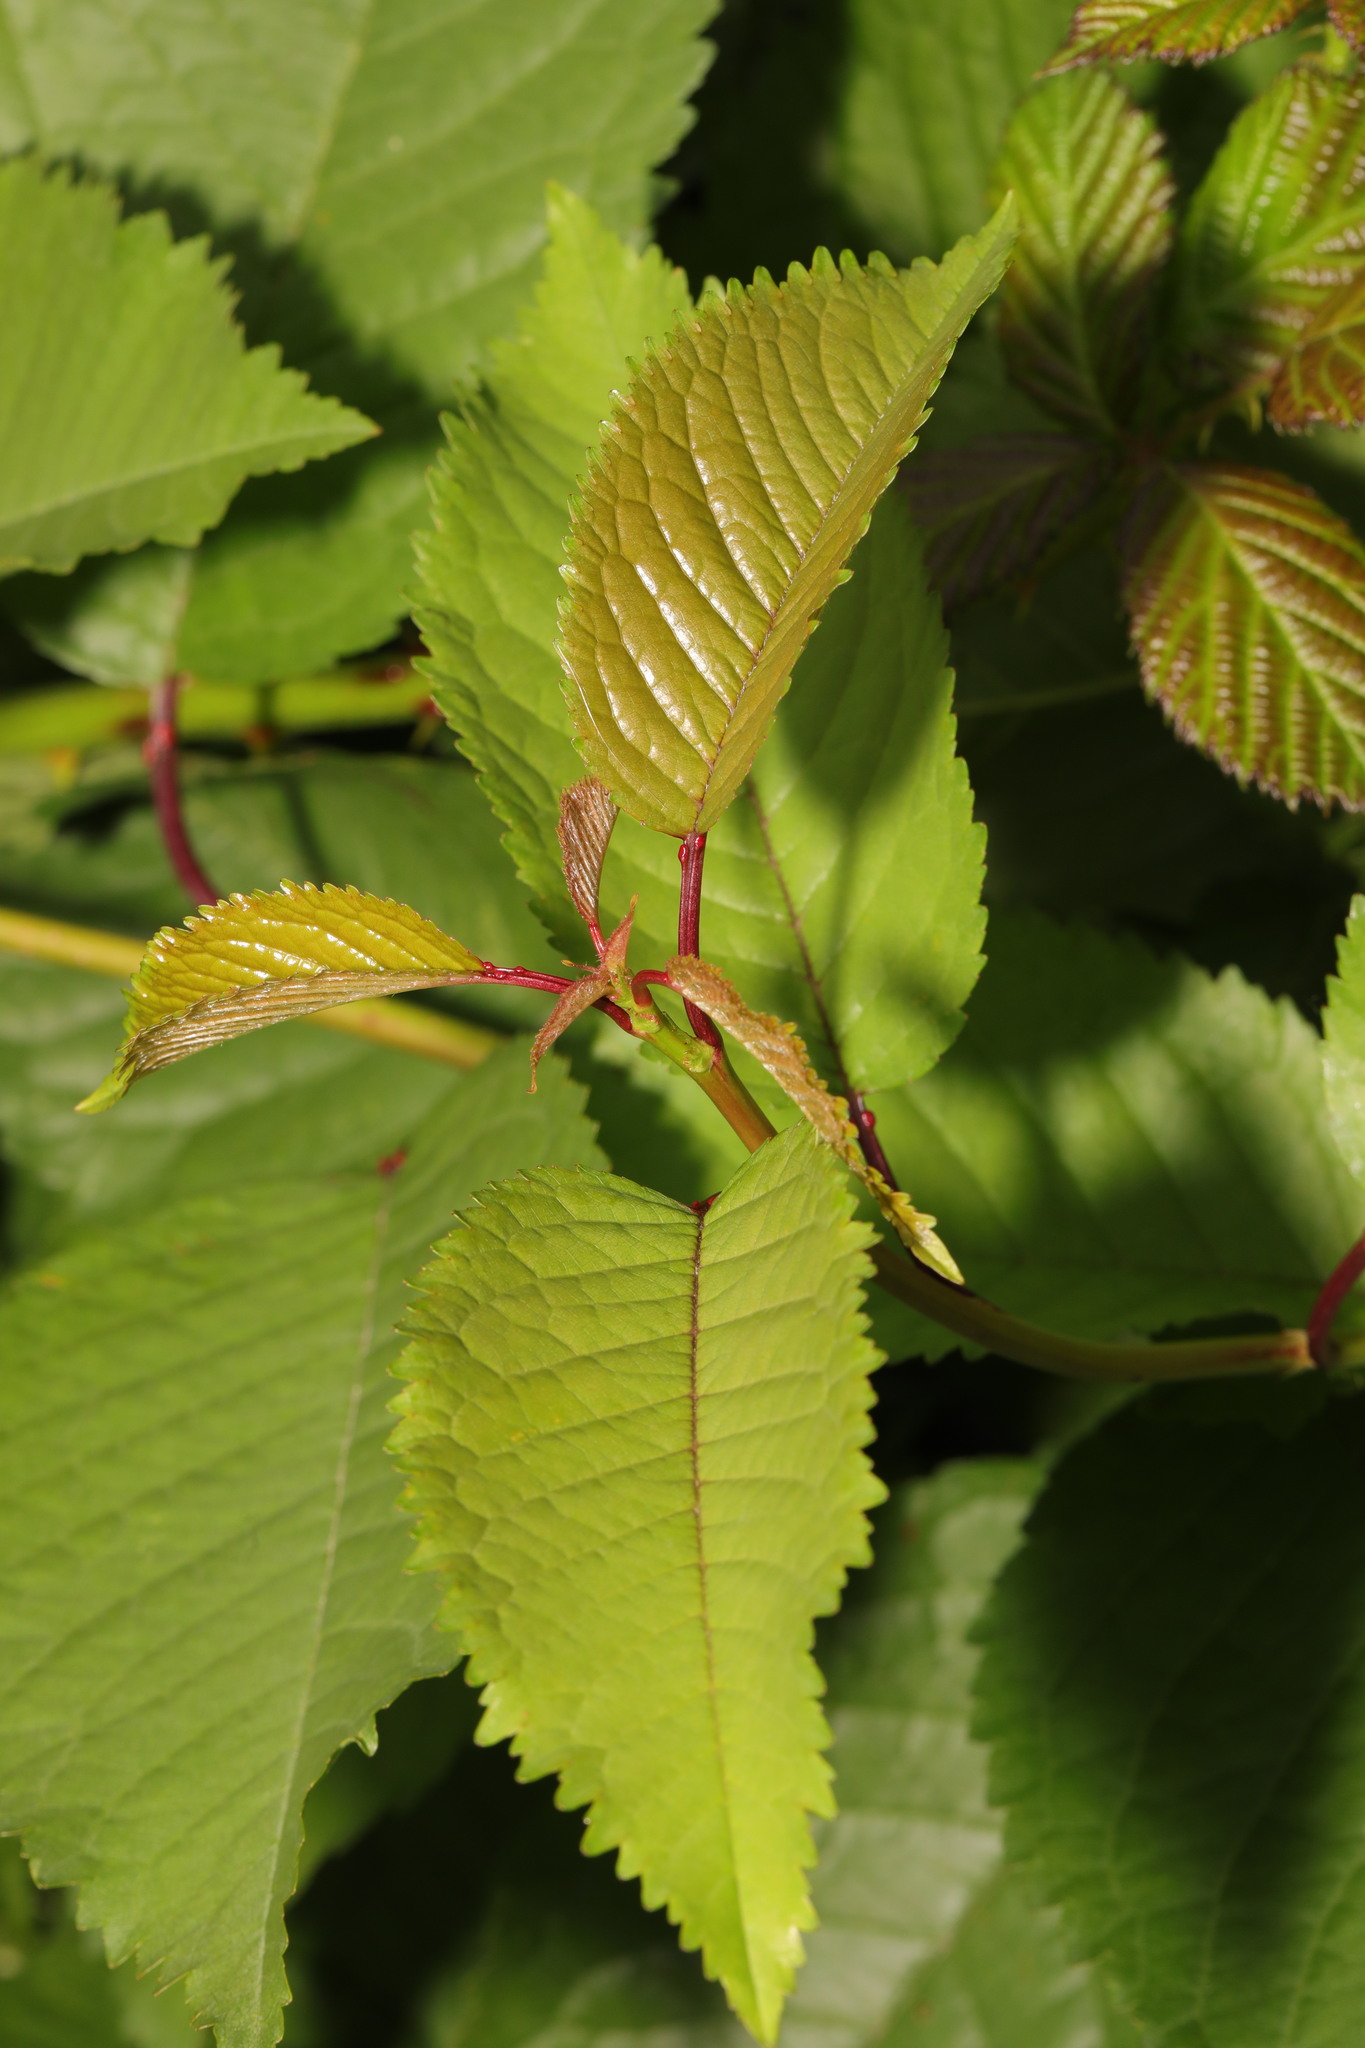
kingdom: Plantae
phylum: Tracheophyta
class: Magnoliopsida
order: Rosales
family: Rosaceae
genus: Prunus
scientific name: Prunus avium
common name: Sweet cherry
